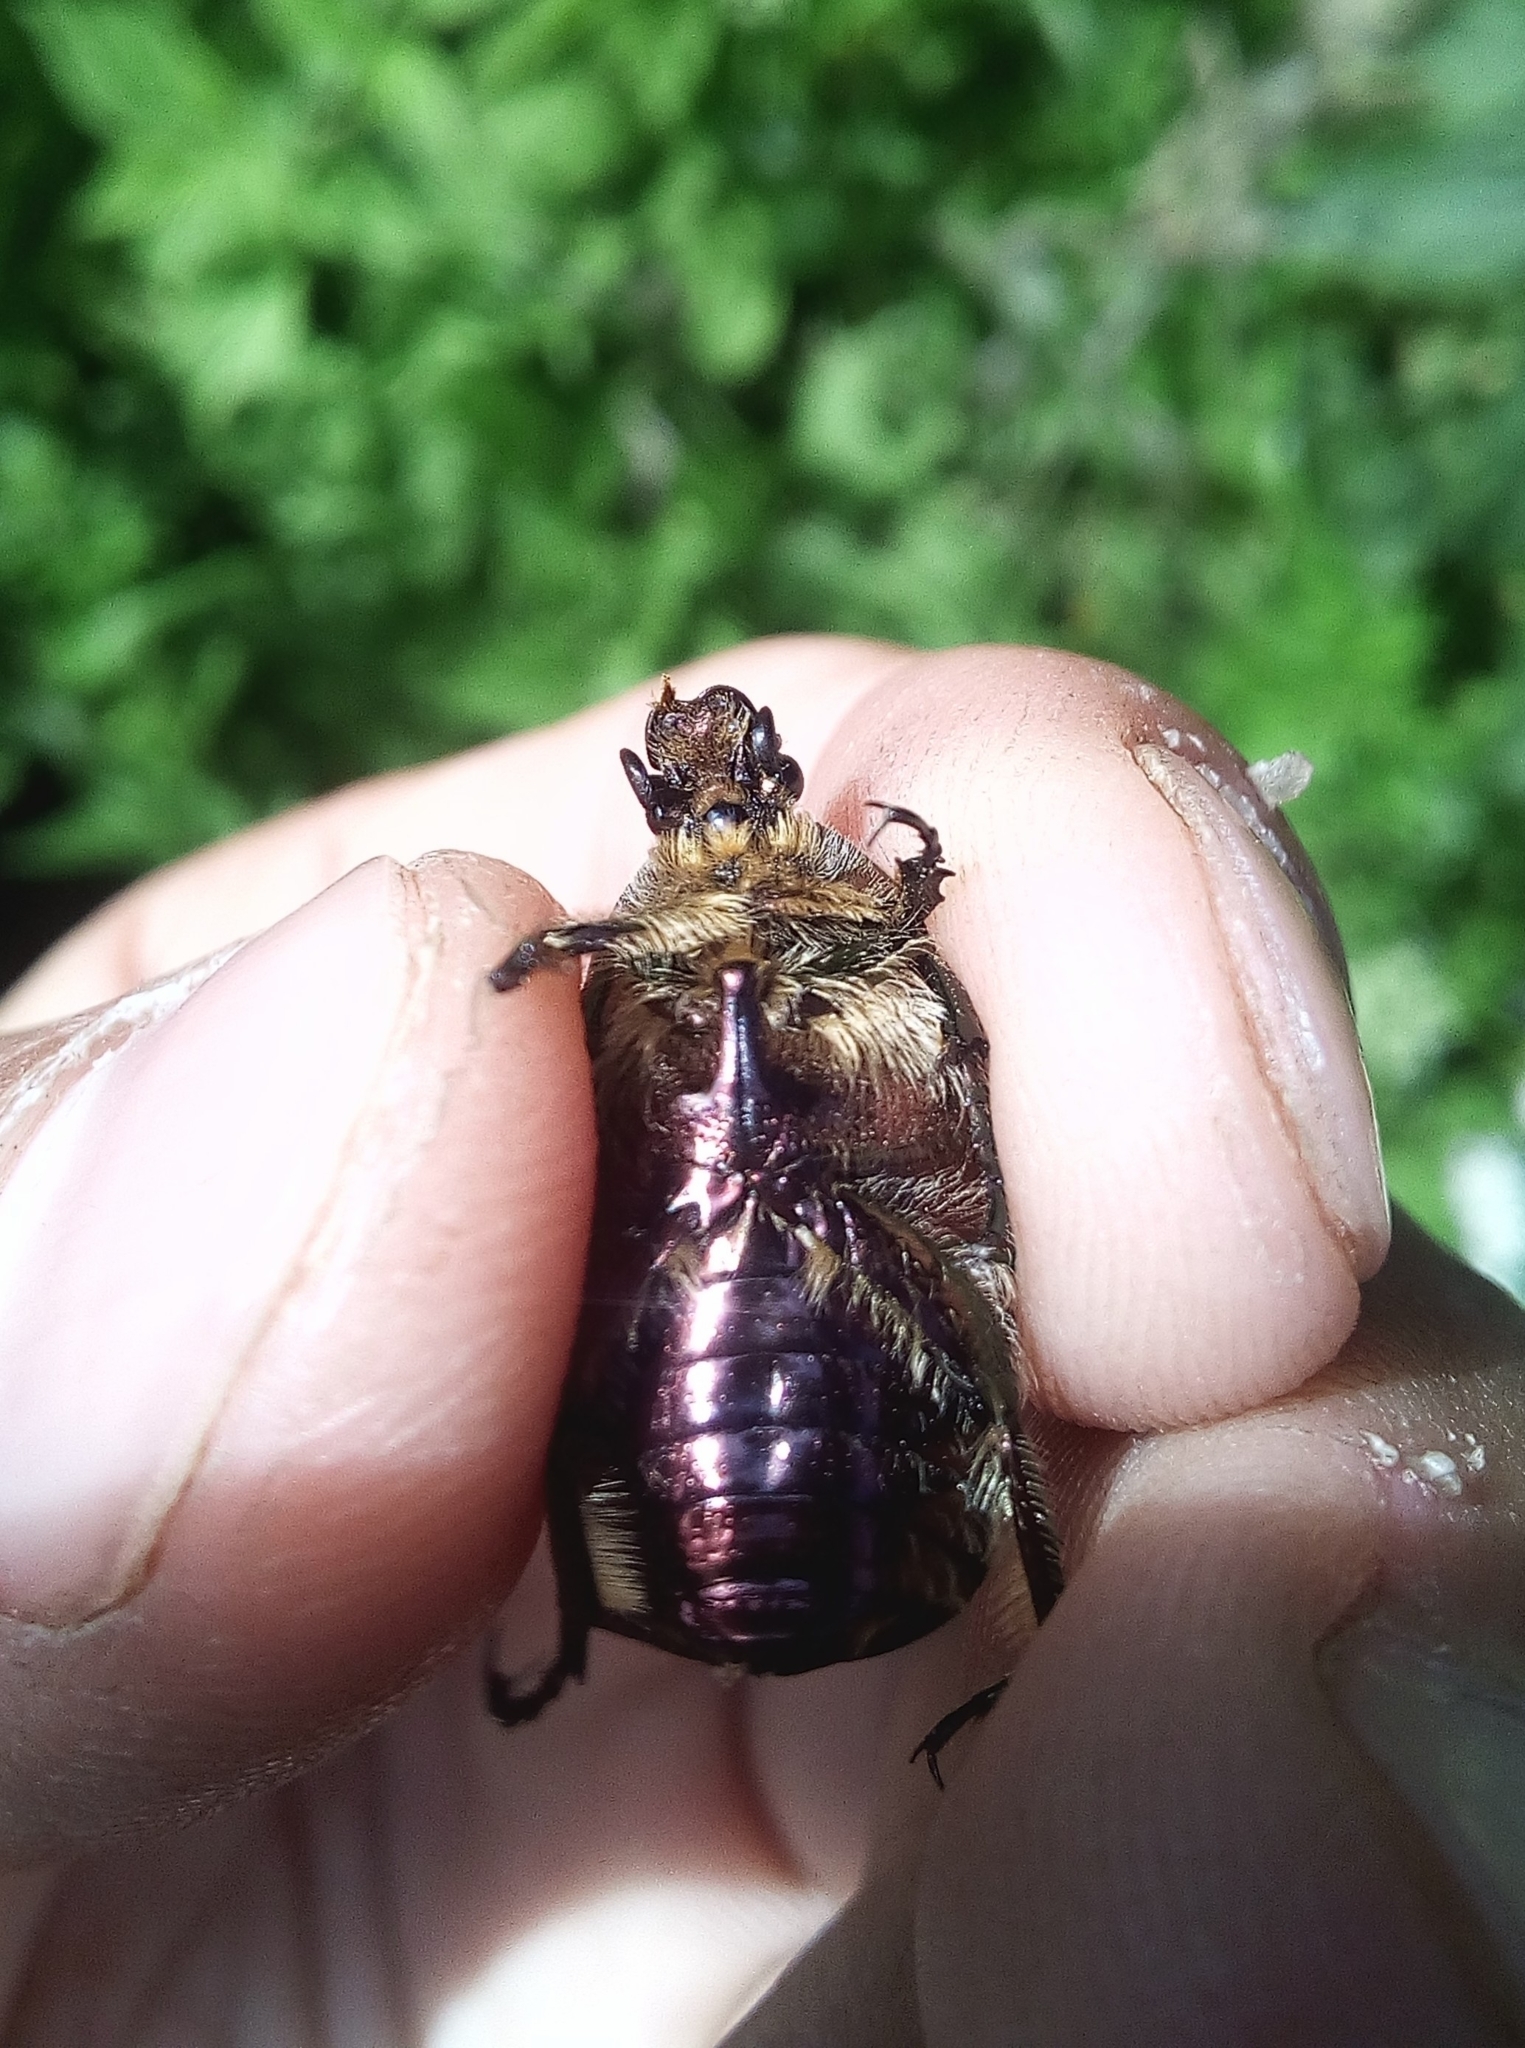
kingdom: Animalia
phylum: Arthropoda
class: Insecta
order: Coleoptera
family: Scarabaeidae
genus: Cetonia
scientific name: Cetonia aurata
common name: Rose chafer
